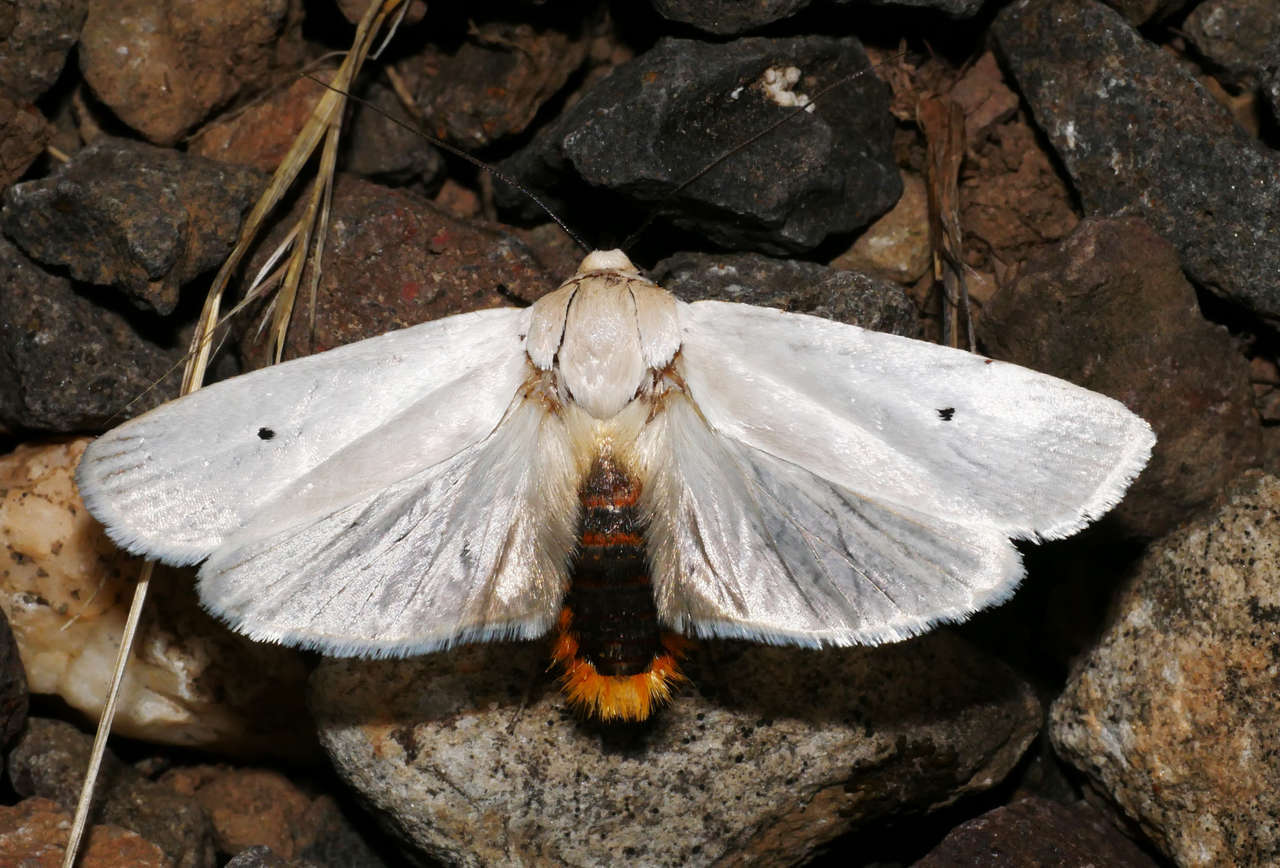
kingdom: Animalia
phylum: Arthropoda
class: Insecta
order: Lepidoptera
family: Xyloryctidae
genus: Maroga
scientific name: Maroga melanostigma
